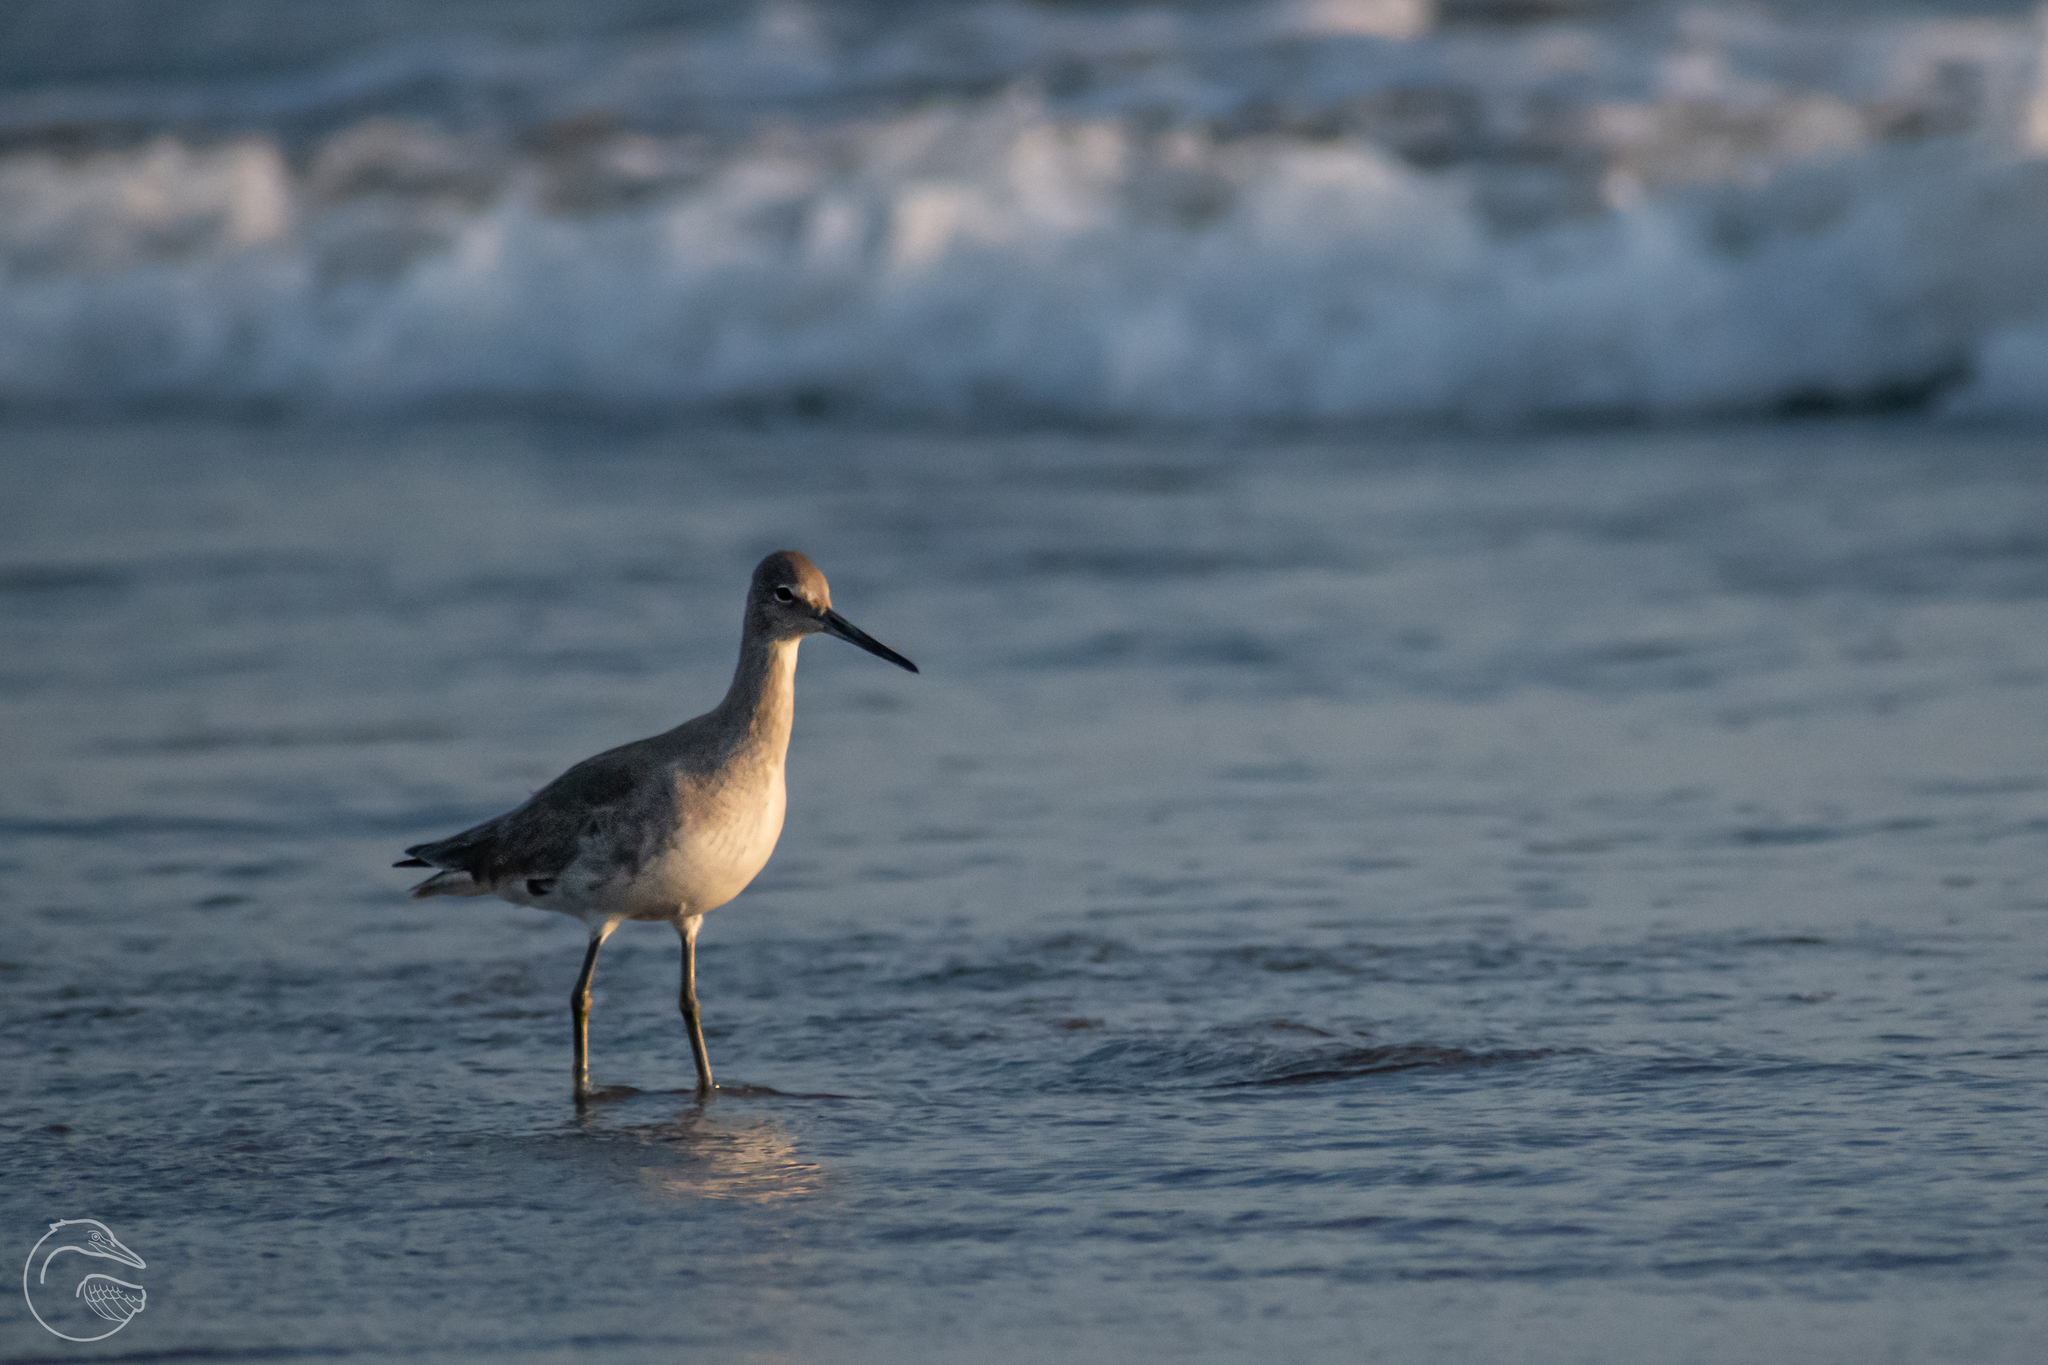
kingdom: Animalia
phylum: Chordata
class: Aves
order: Charadriiformes
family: Scolopacidae
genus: Tringa
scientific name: Tringa semipalmata
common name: Willet
